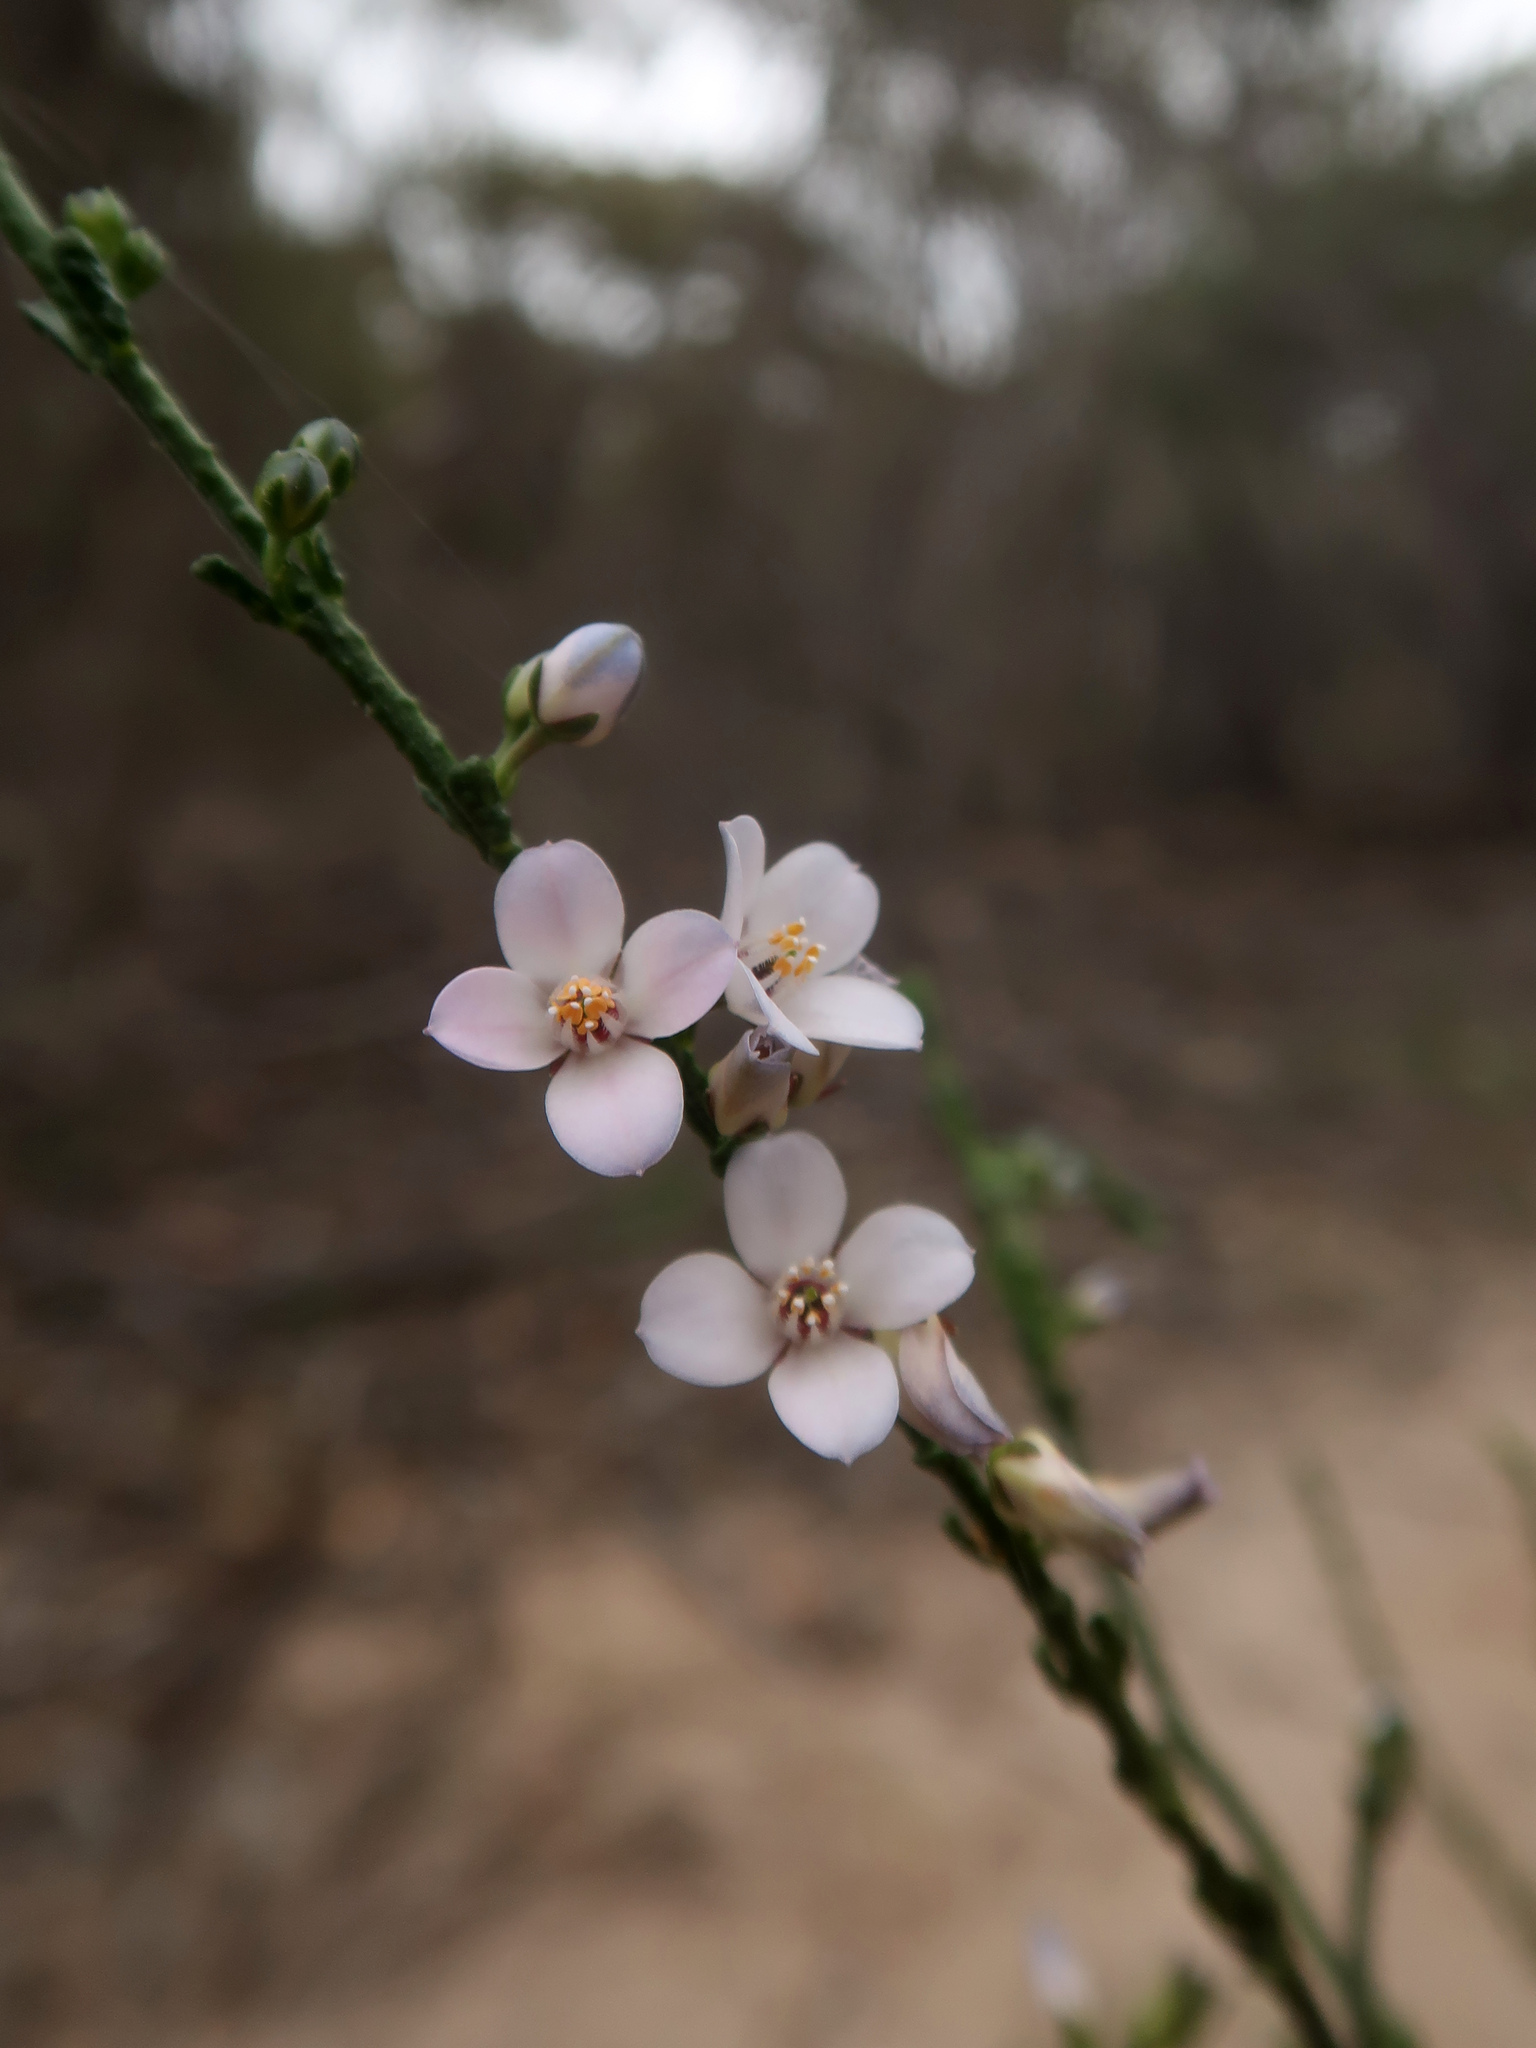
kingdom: Plantae
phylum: Tracheophyta
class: Magnoliopsida
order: Sapindales
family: Rutaceae
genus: Cyanothamnus
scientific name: Cyanothamnus coerulescens
